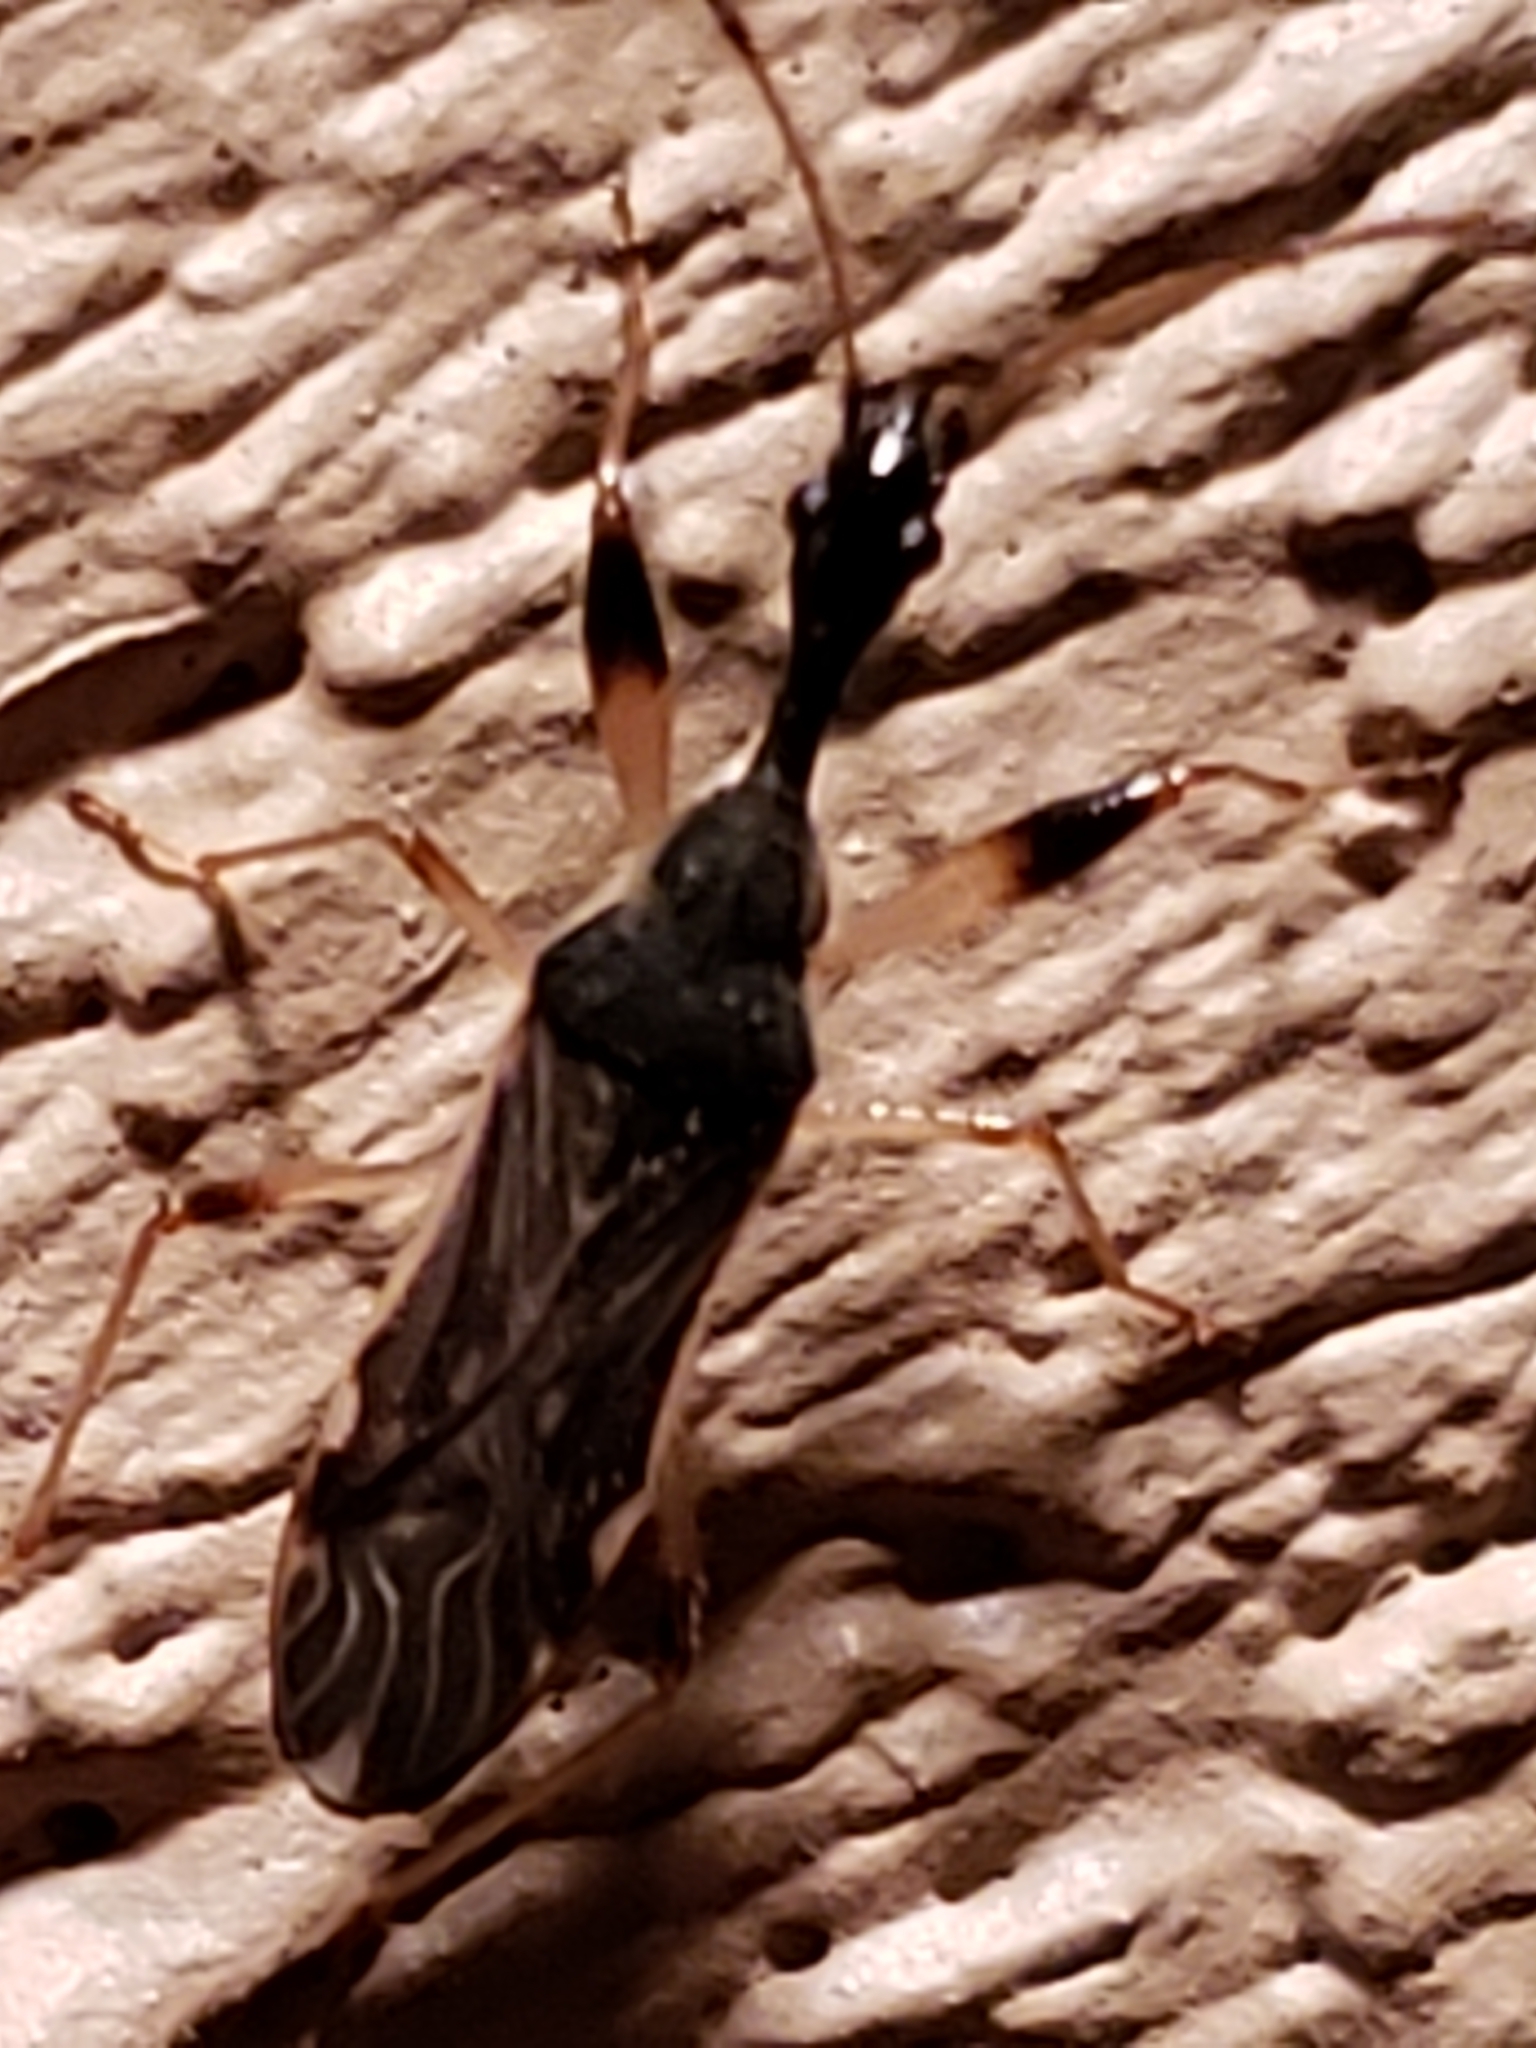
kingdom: Animalia
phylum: Arthropoda
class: Insecta
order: Hemiptera
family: Rhyparochromidae
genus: Myodocha
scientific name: Myodocha serripes
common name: Long-necked seed bug
